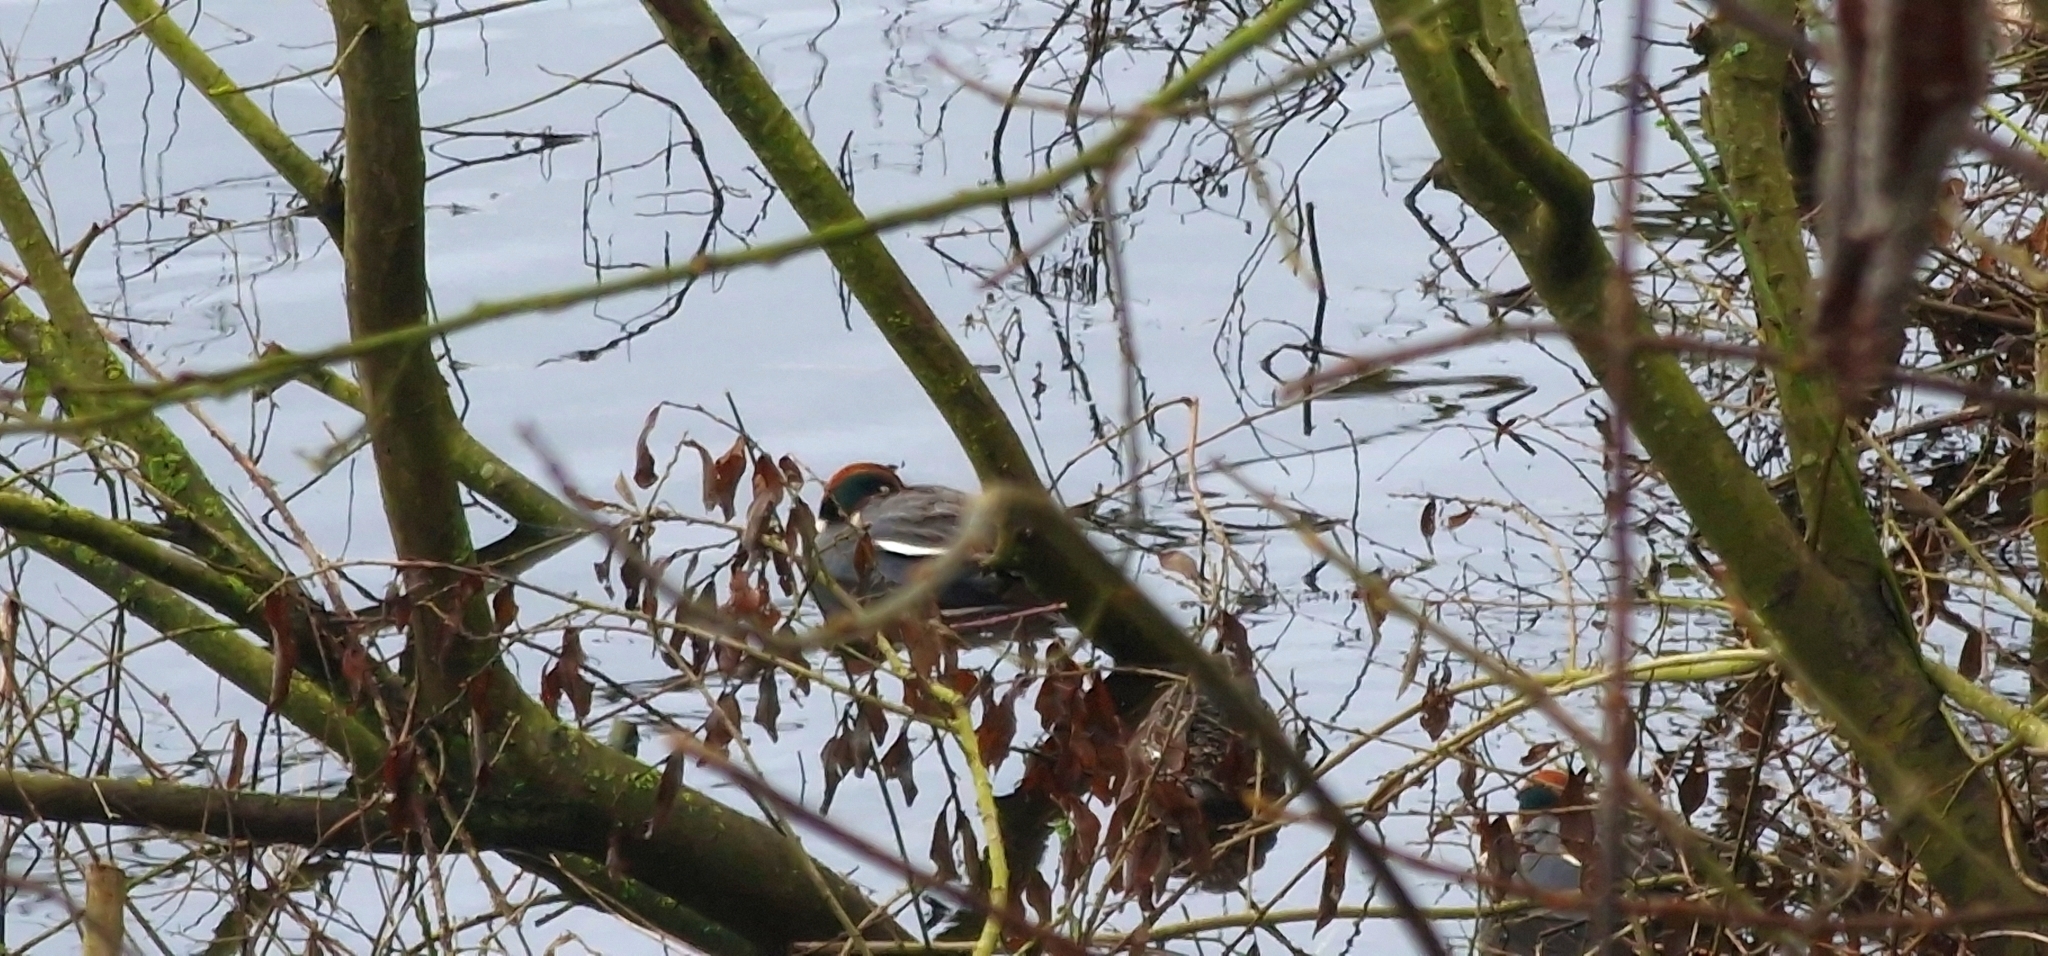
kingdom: Animalia
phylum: Chordata
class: Aves
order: Anseriformes
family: Anatidae
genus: Anas
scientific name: Anas crecca
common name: Eurasian teal
